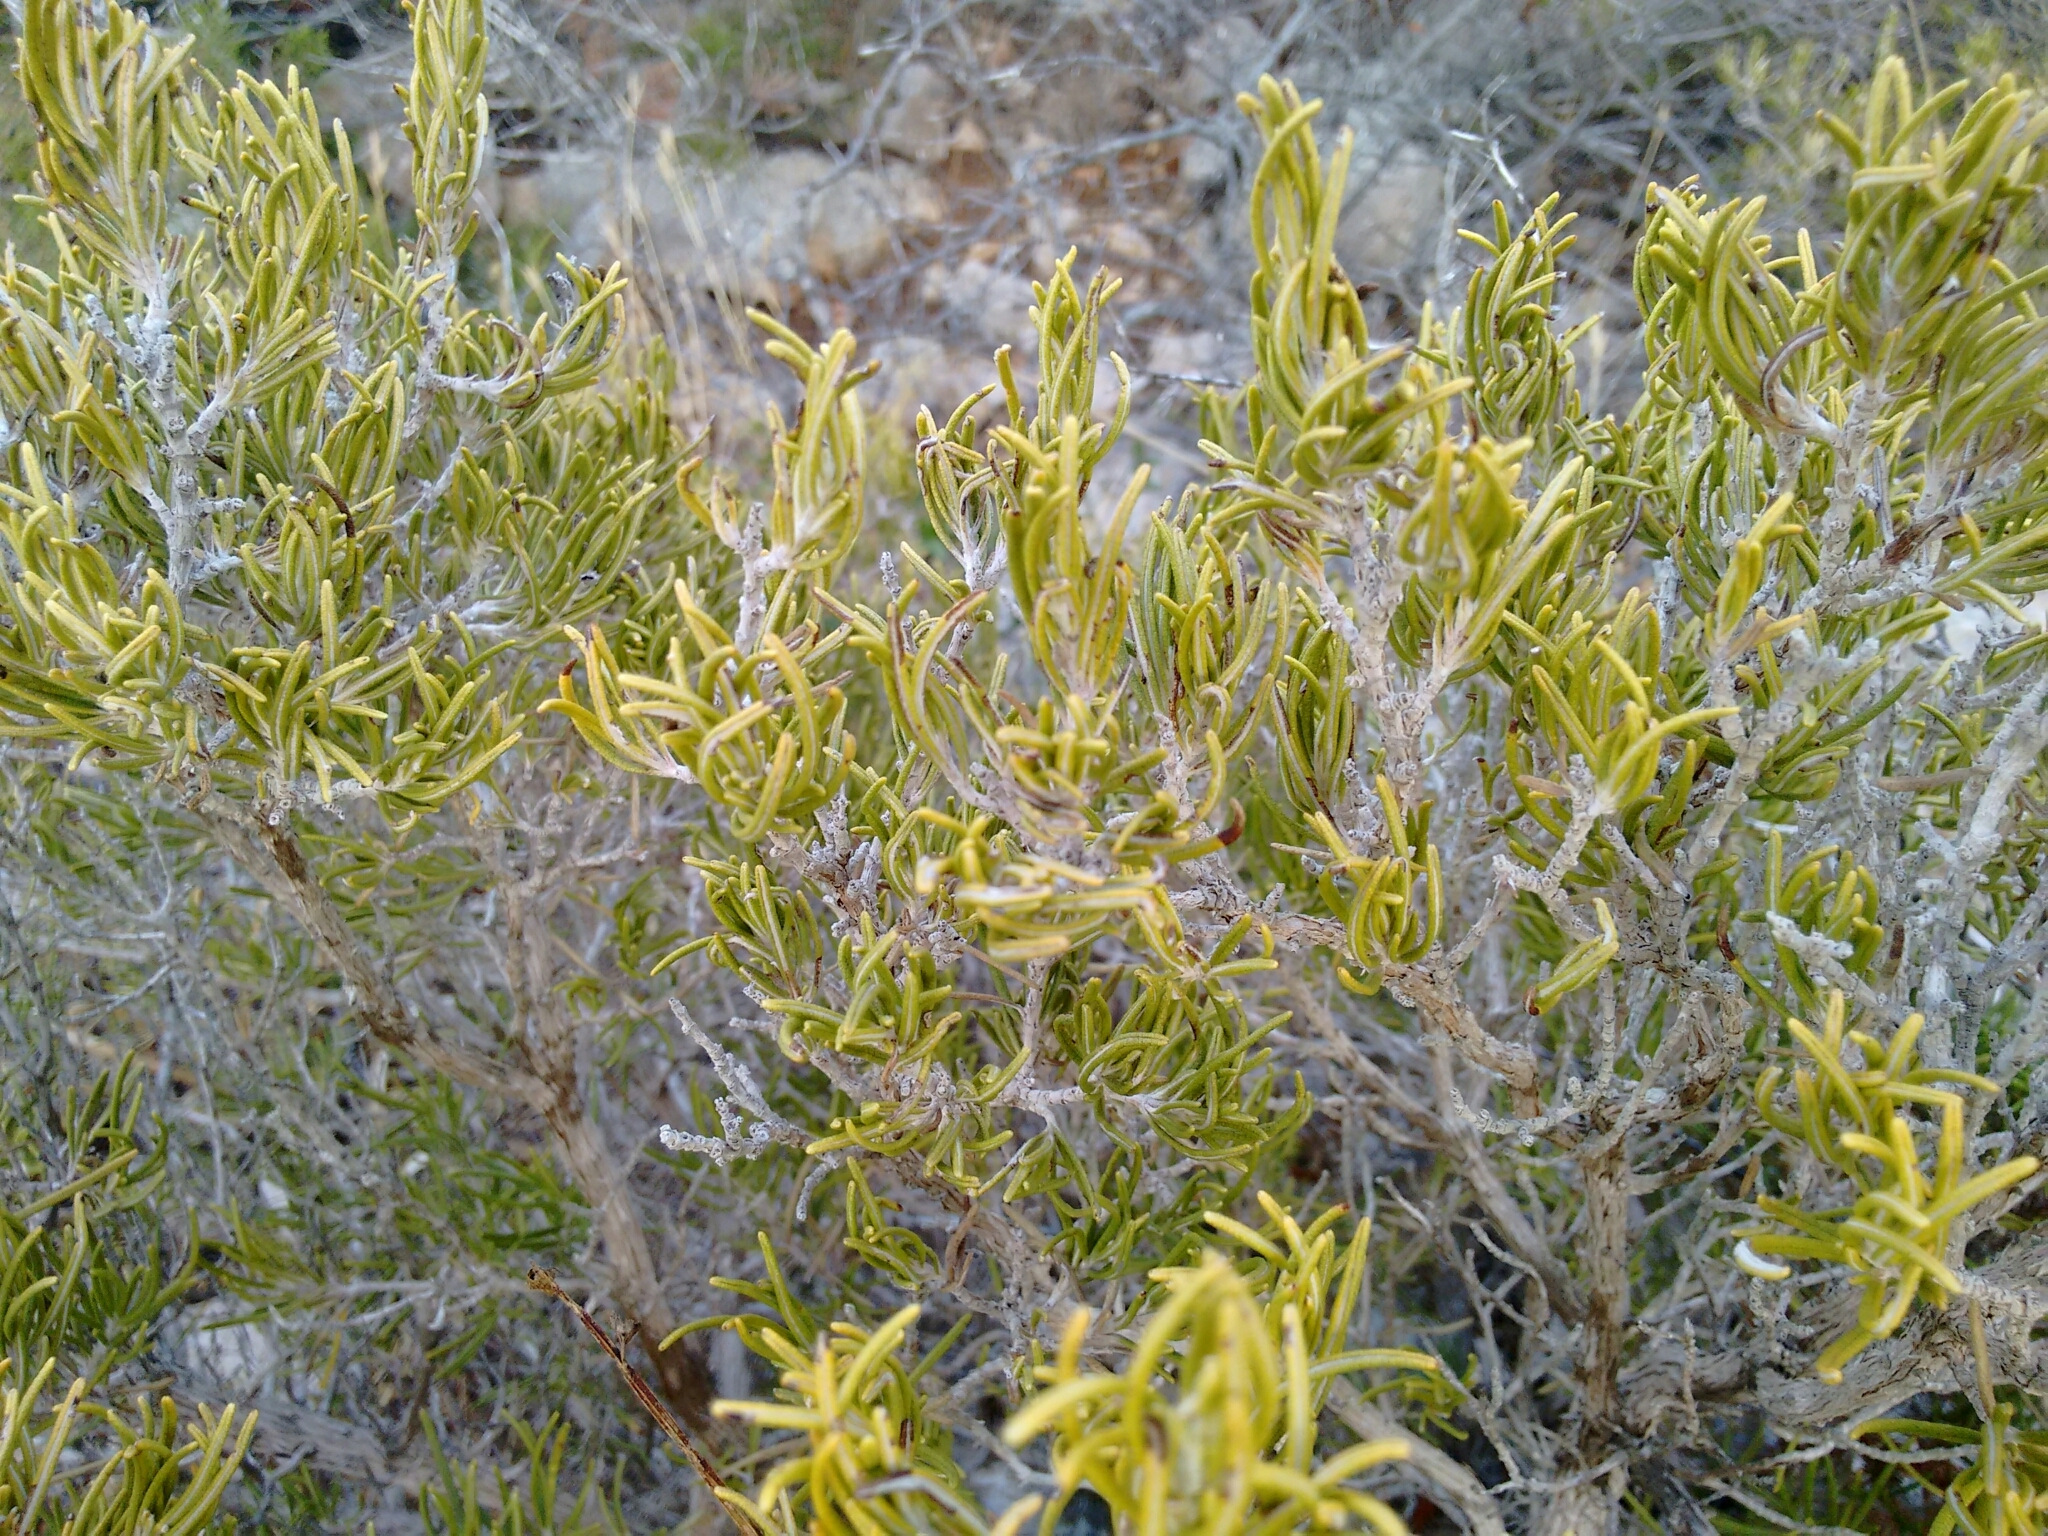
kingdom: Plantae
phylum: Tracheophyta
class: Magnoliopsida
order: Lamiales
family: Lamiaceae
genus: Salvia
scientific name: Salvia rosmarinus
